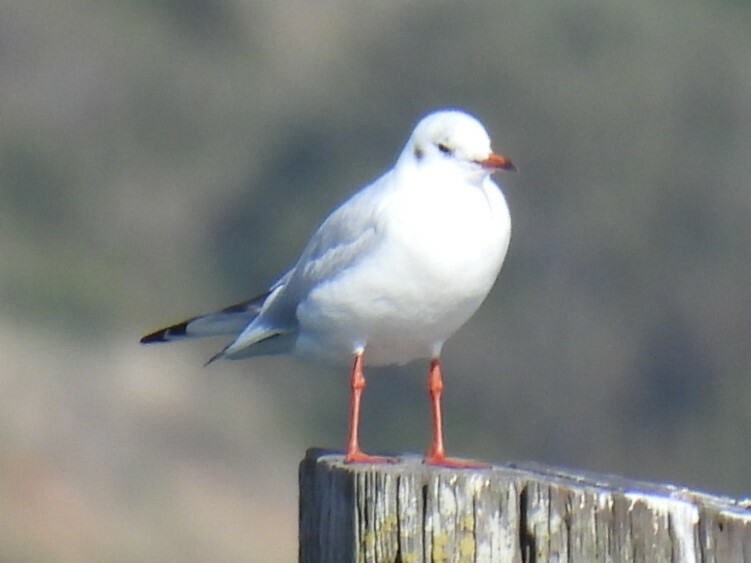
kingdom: Animalia
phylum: Chordata
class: Aves
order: Charadriiformes
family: Laridae
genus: Chroicocephalus
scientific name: Chroicocephalus ridibundus
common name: Black-headed gull
